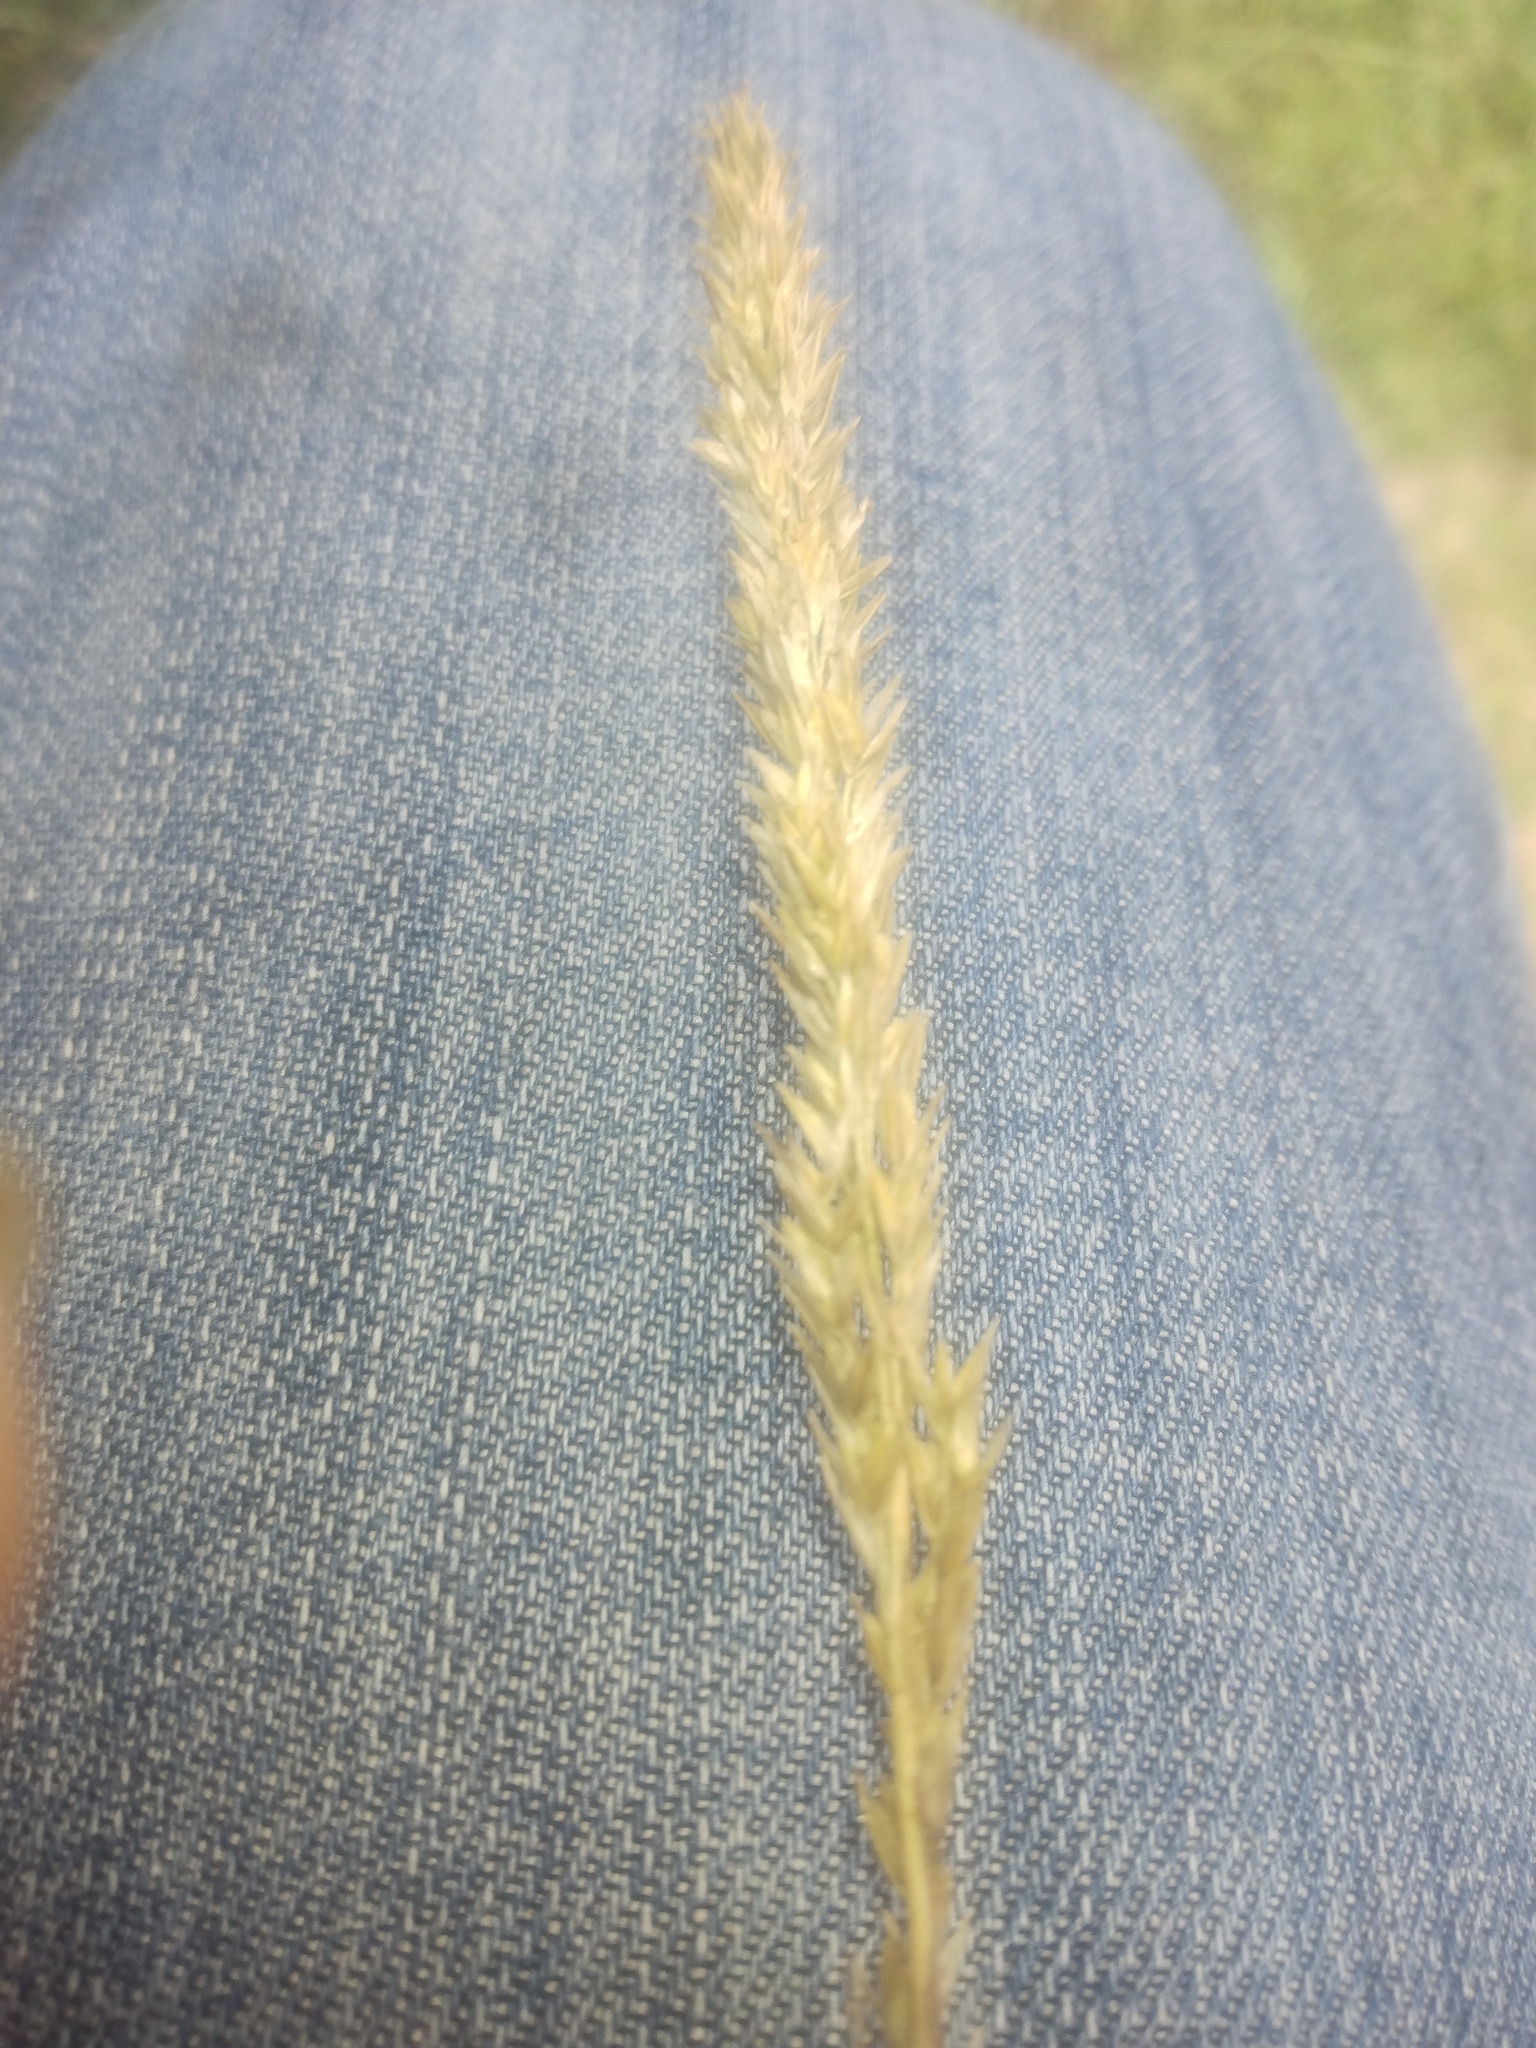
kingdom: Plantae
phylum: Tracheophyta
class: Liliopsida
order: Poales
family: Poaceae
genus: Tridens
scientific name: Tridens strictus
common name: Long-spike tridens
